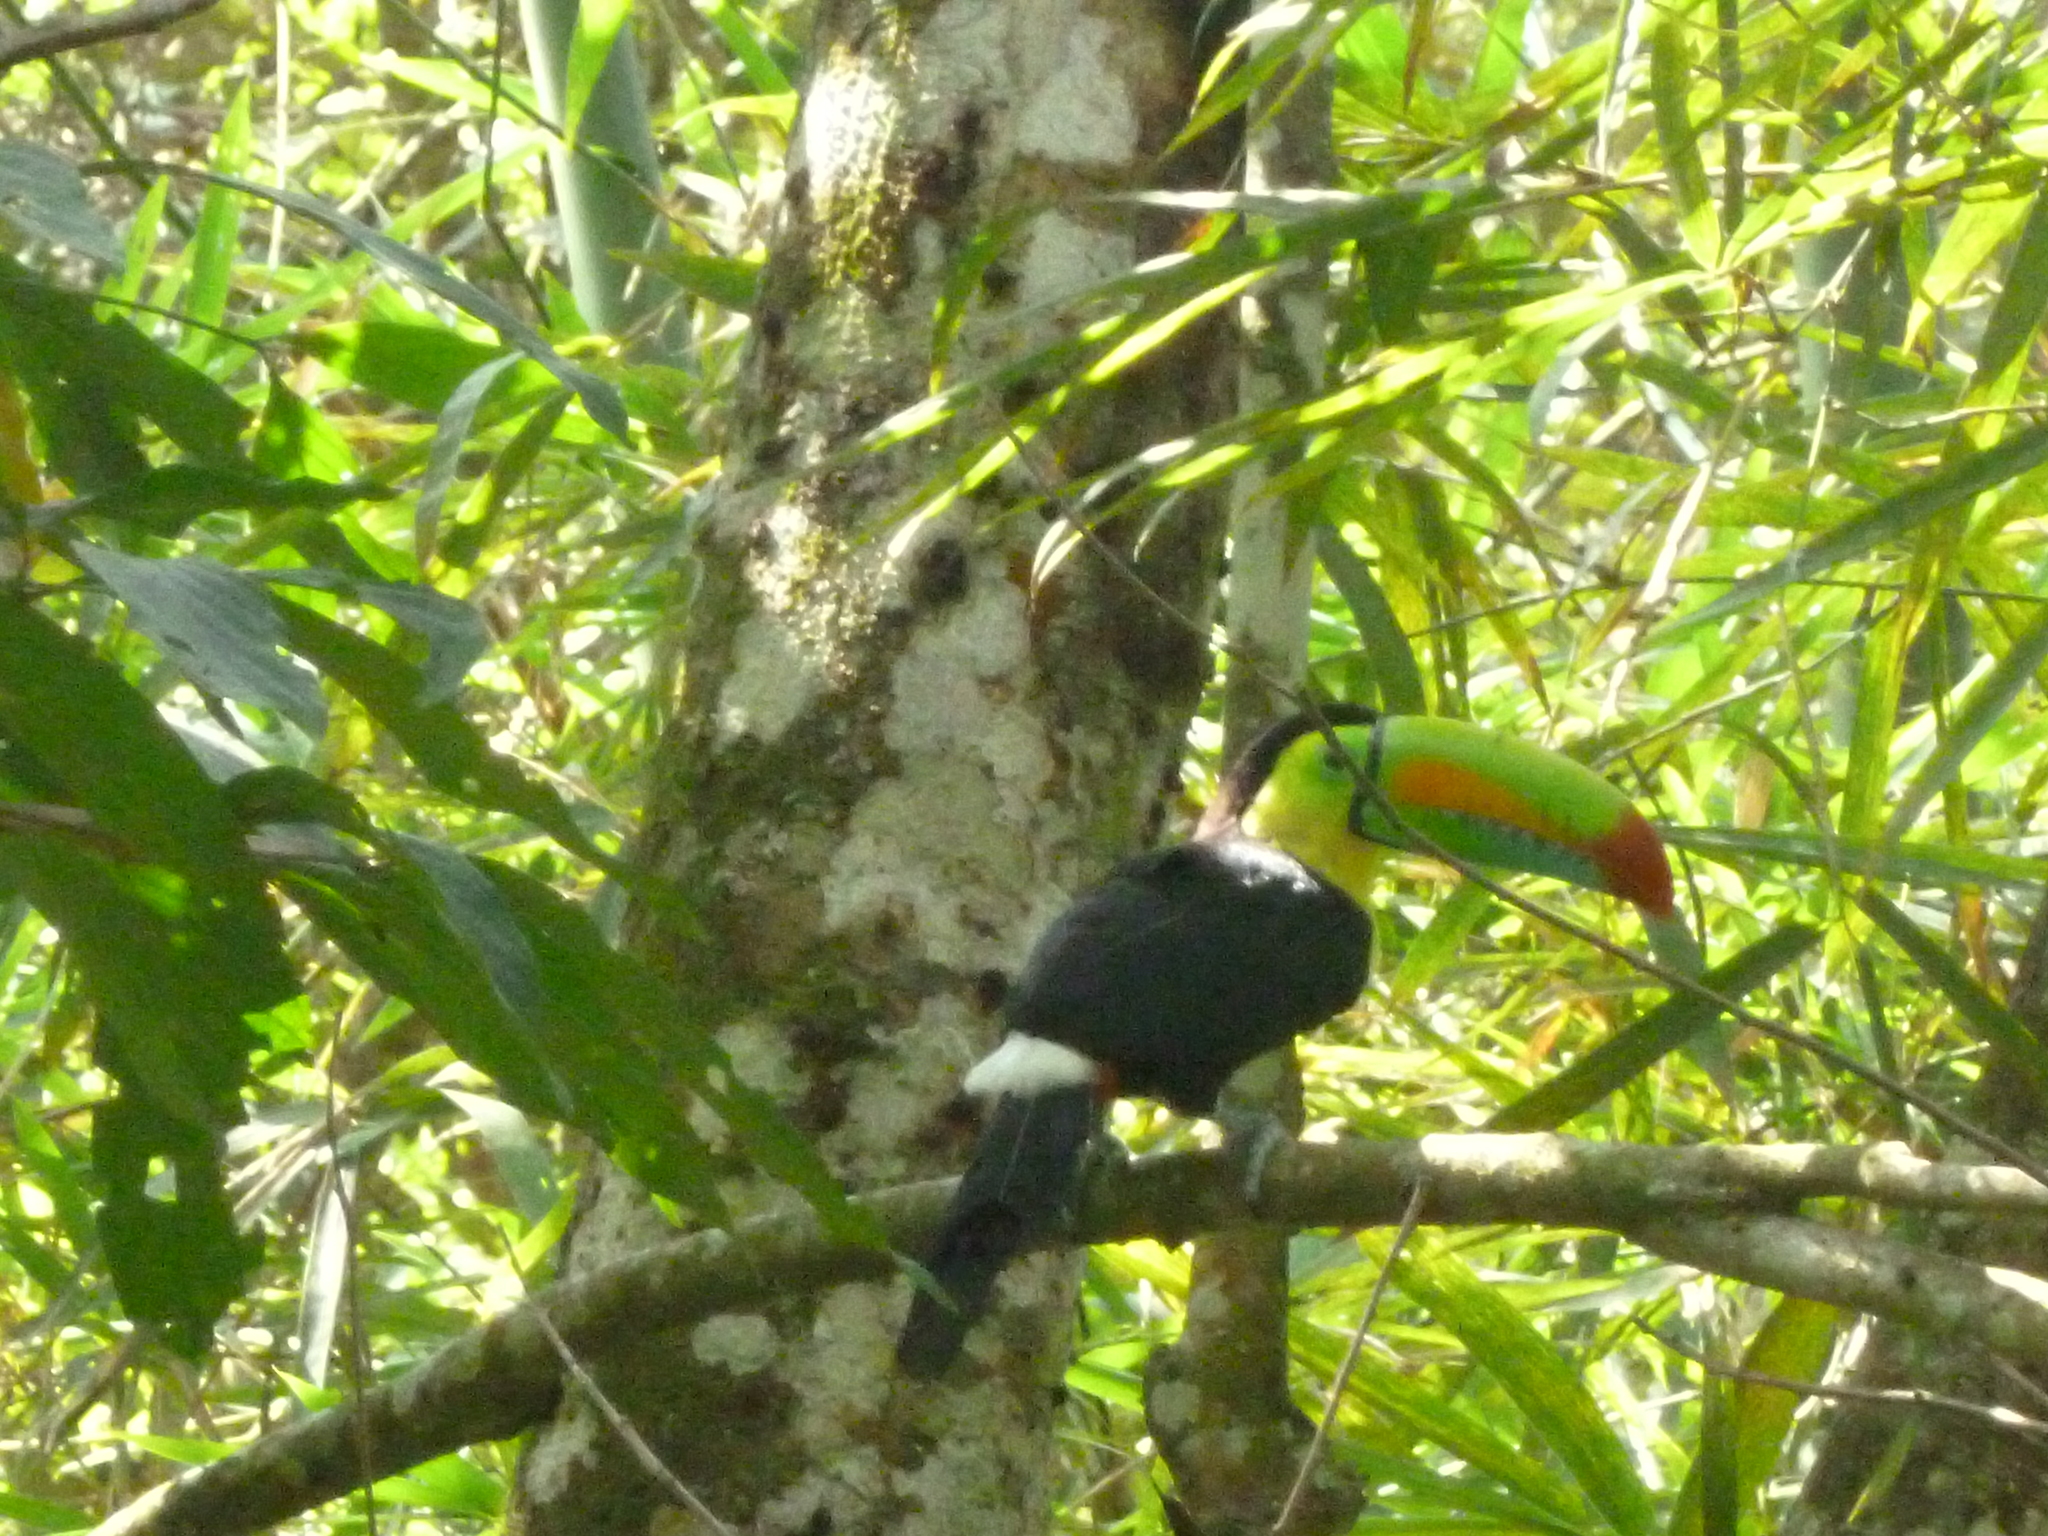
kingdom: Animalia
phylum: Chordata
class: Aves
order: Piciformes
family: Ramphastidae
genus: Ramphastos
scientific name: Ramphastos sulfuratus
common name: Keel-billed toucan
